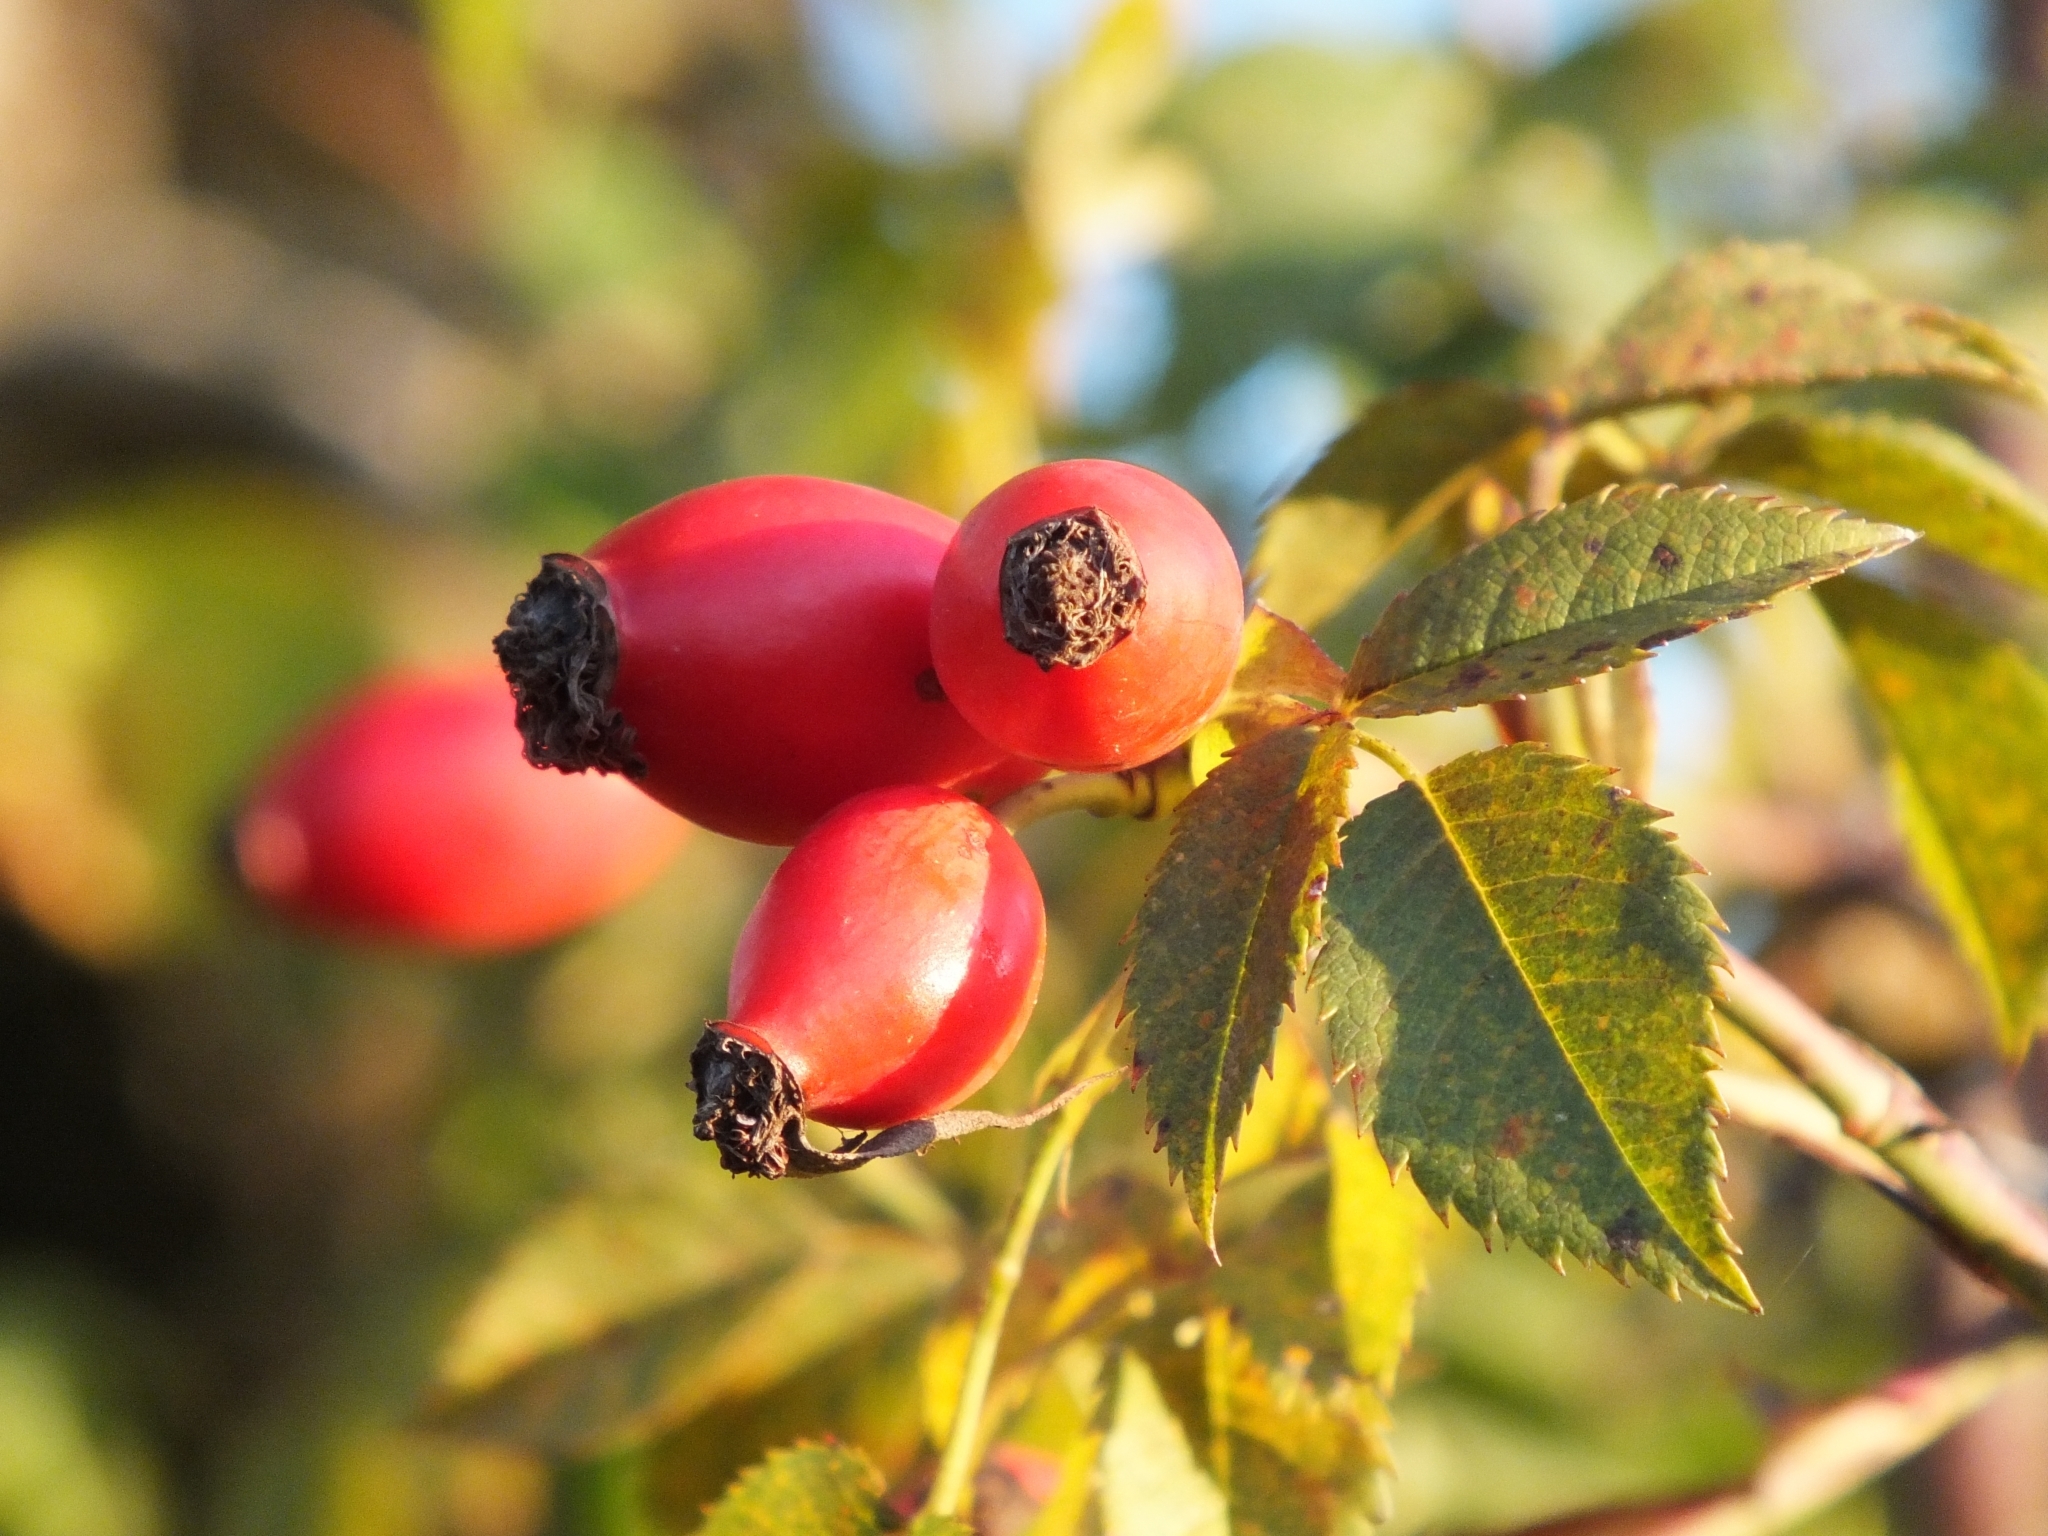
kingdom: Plantae
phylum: Tracheophyta
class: Magnoliopsida
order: Rosales
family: Rosaceae
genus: Rosa
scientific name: Rosa canina
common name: Dog rose
